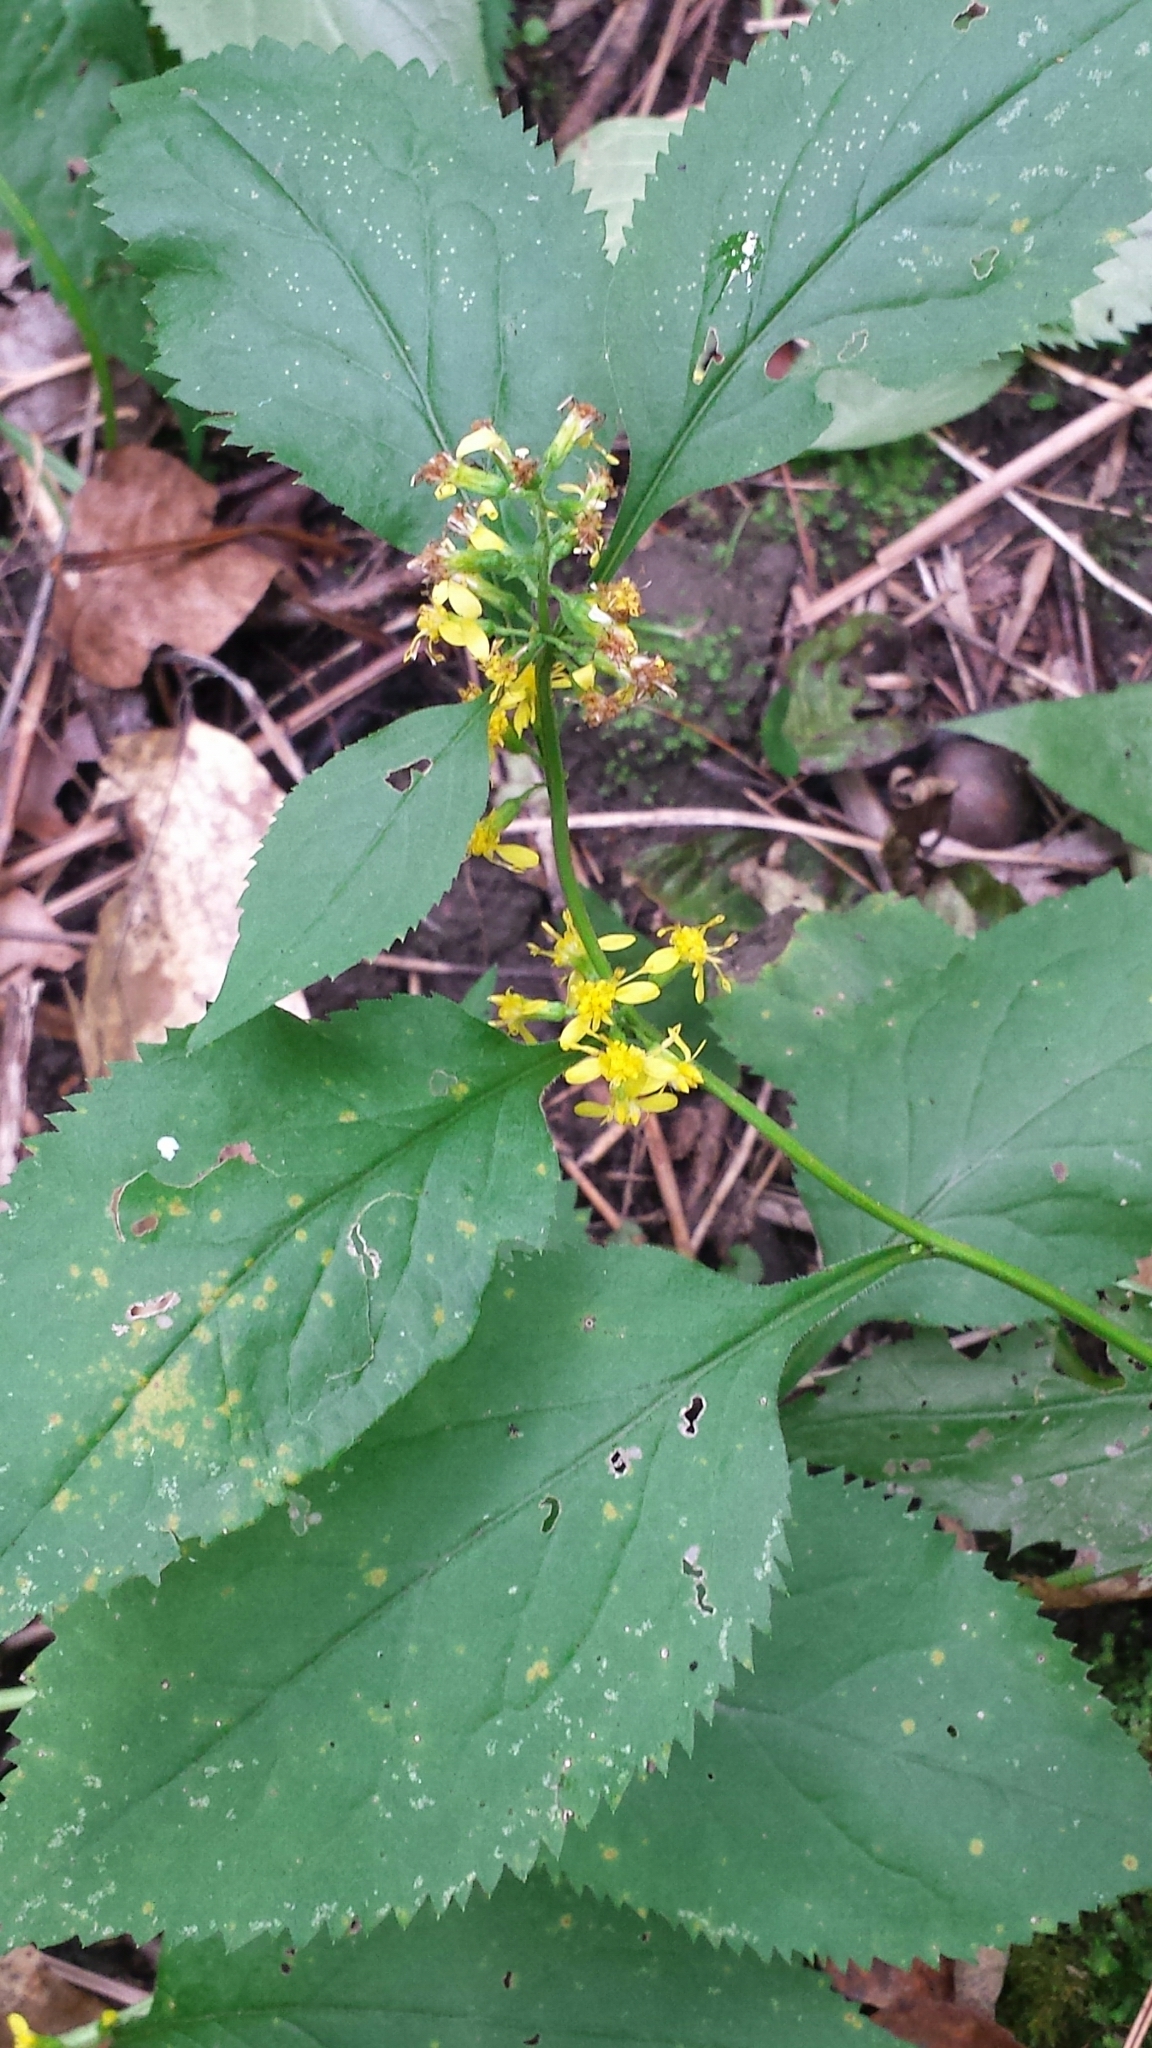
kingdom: Plantae
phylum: Tracheophyta
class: Magnoliopsida
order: Asterales
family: Asteraceae
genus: Solidago
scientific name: Solidago flexicaulis
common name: Zig-zag goldenrod
